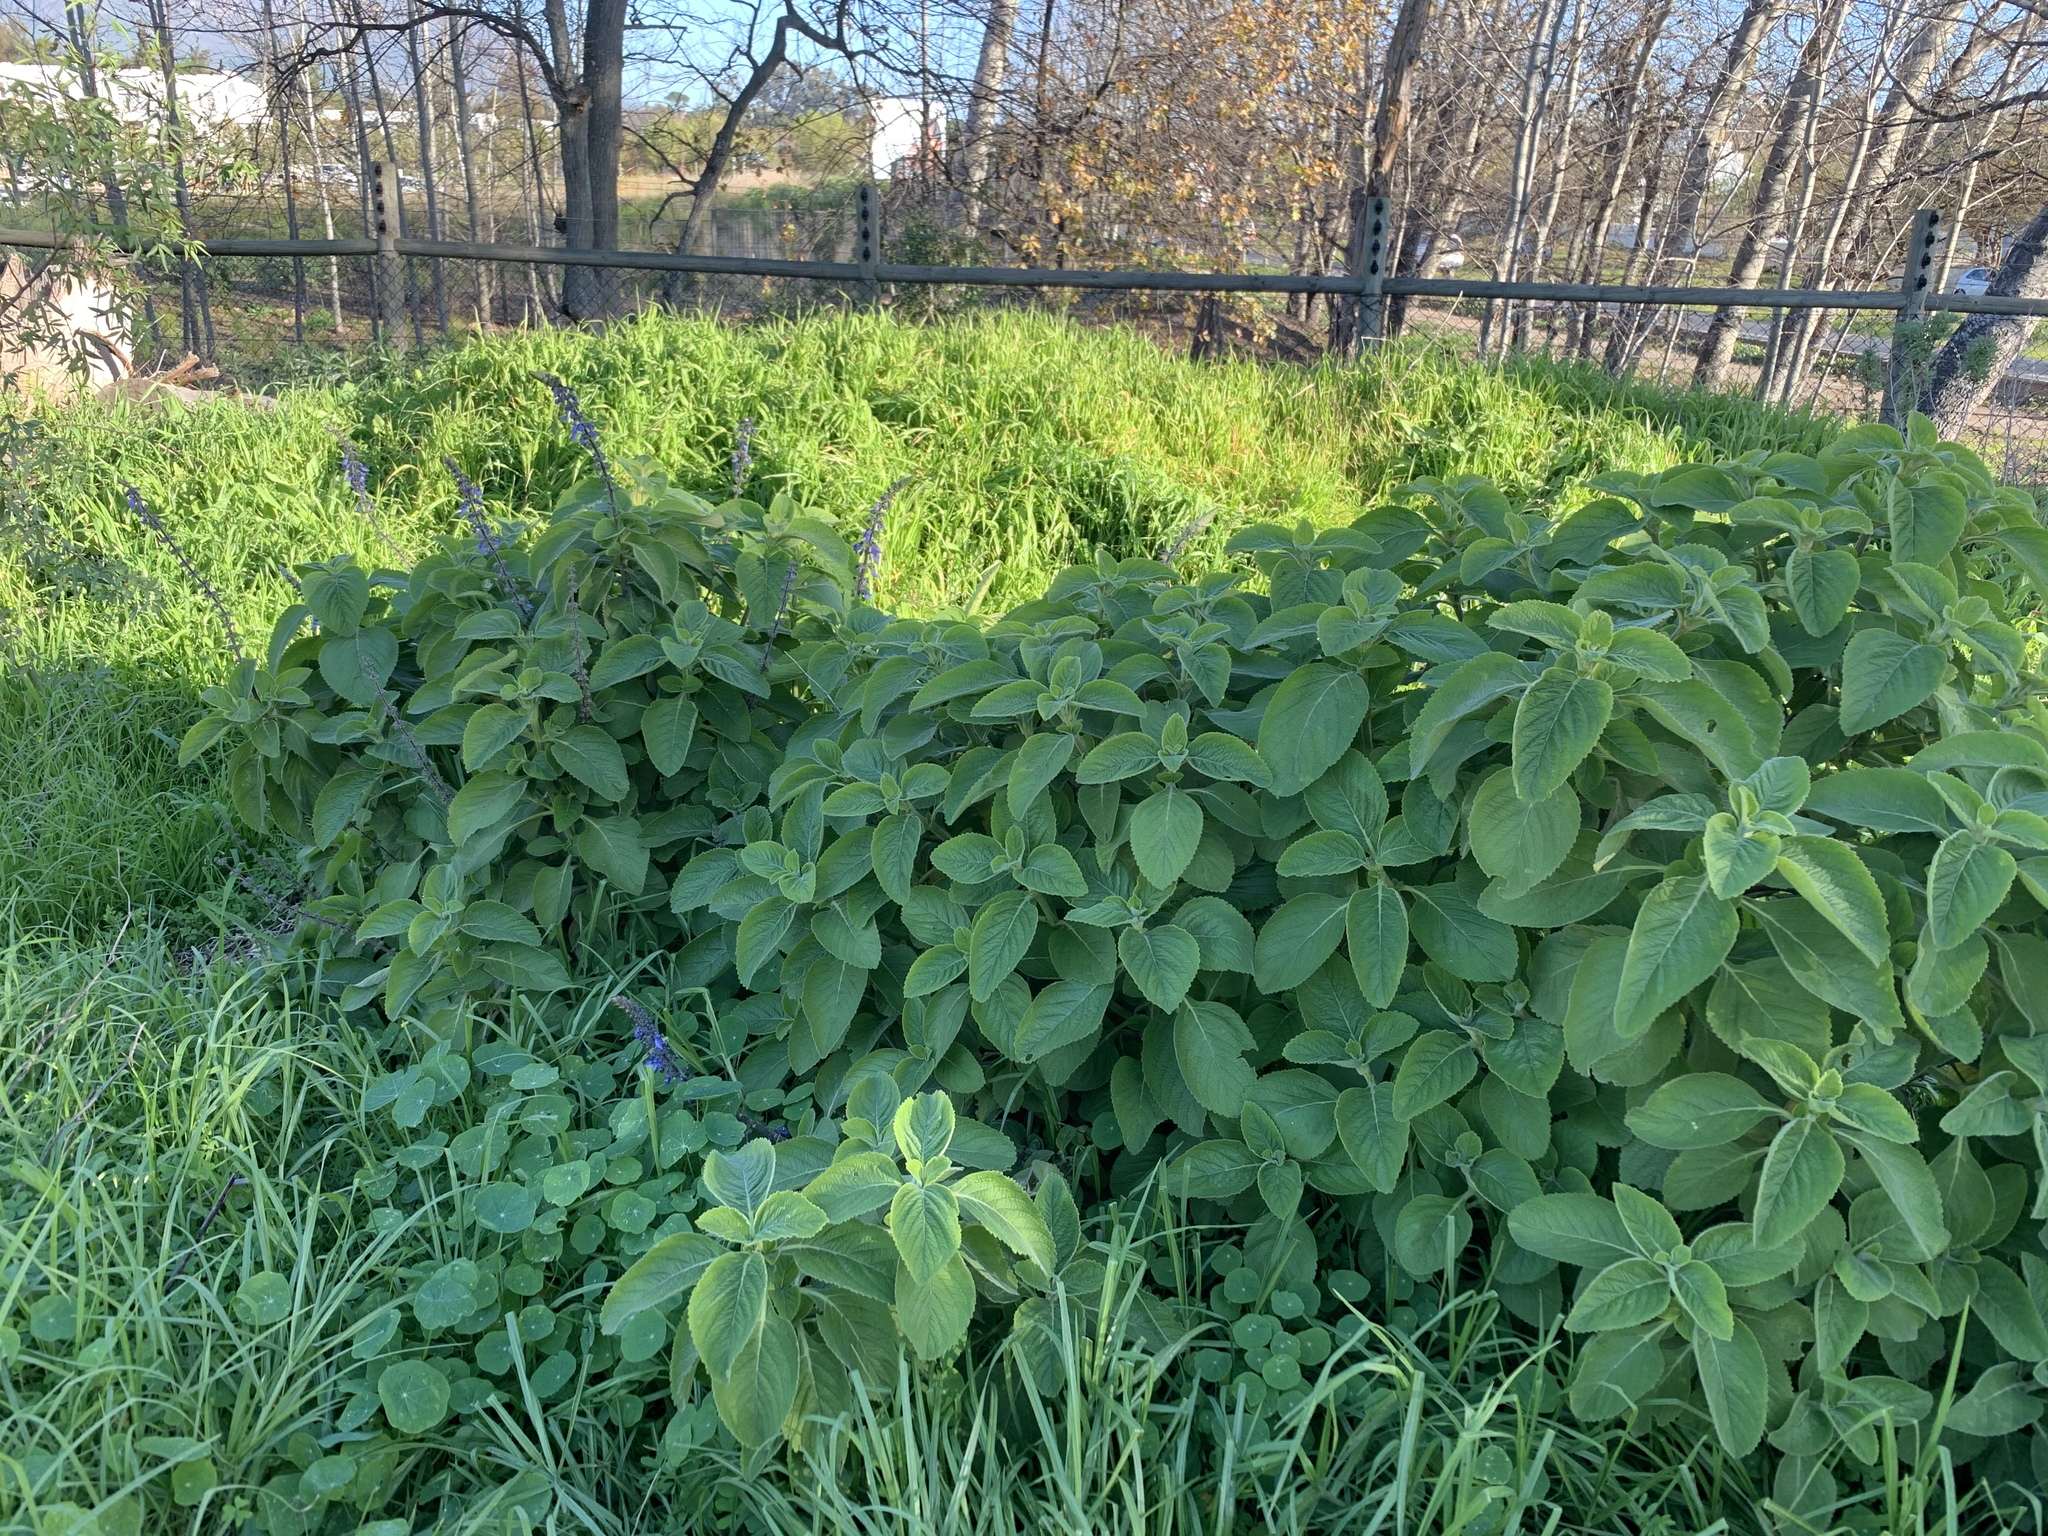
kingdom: Plantae
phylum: Tracheophyta
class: Magnoliopsida
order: Lamiales
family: Lamiaceae
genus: Coleus
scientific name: Coleus barbatus
